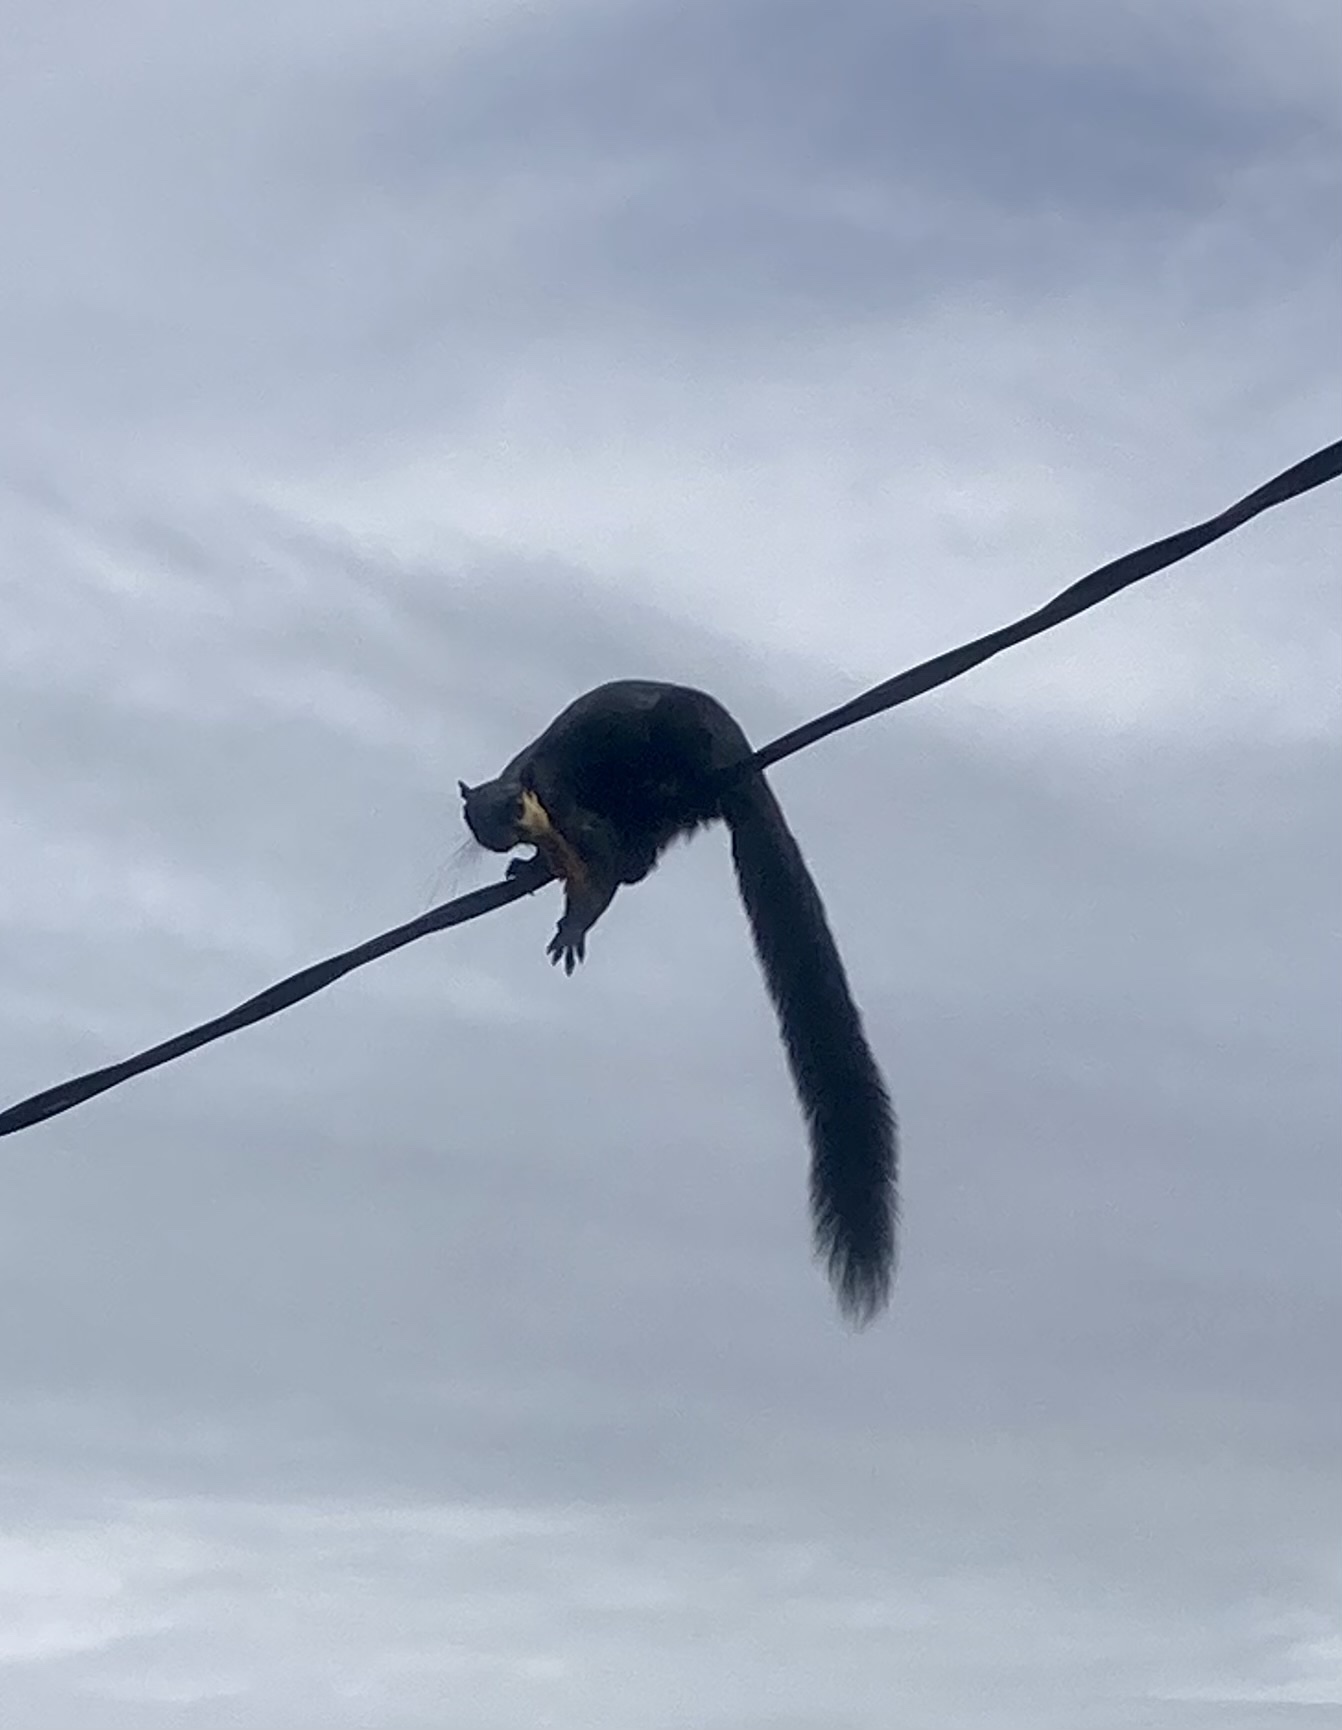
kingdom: Animalia
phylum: Chordata
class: Mammalia
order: Rodentia
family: Sciuridae
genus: Ratufa
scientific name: Ratufa bicolor
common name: Black giant squirrel
